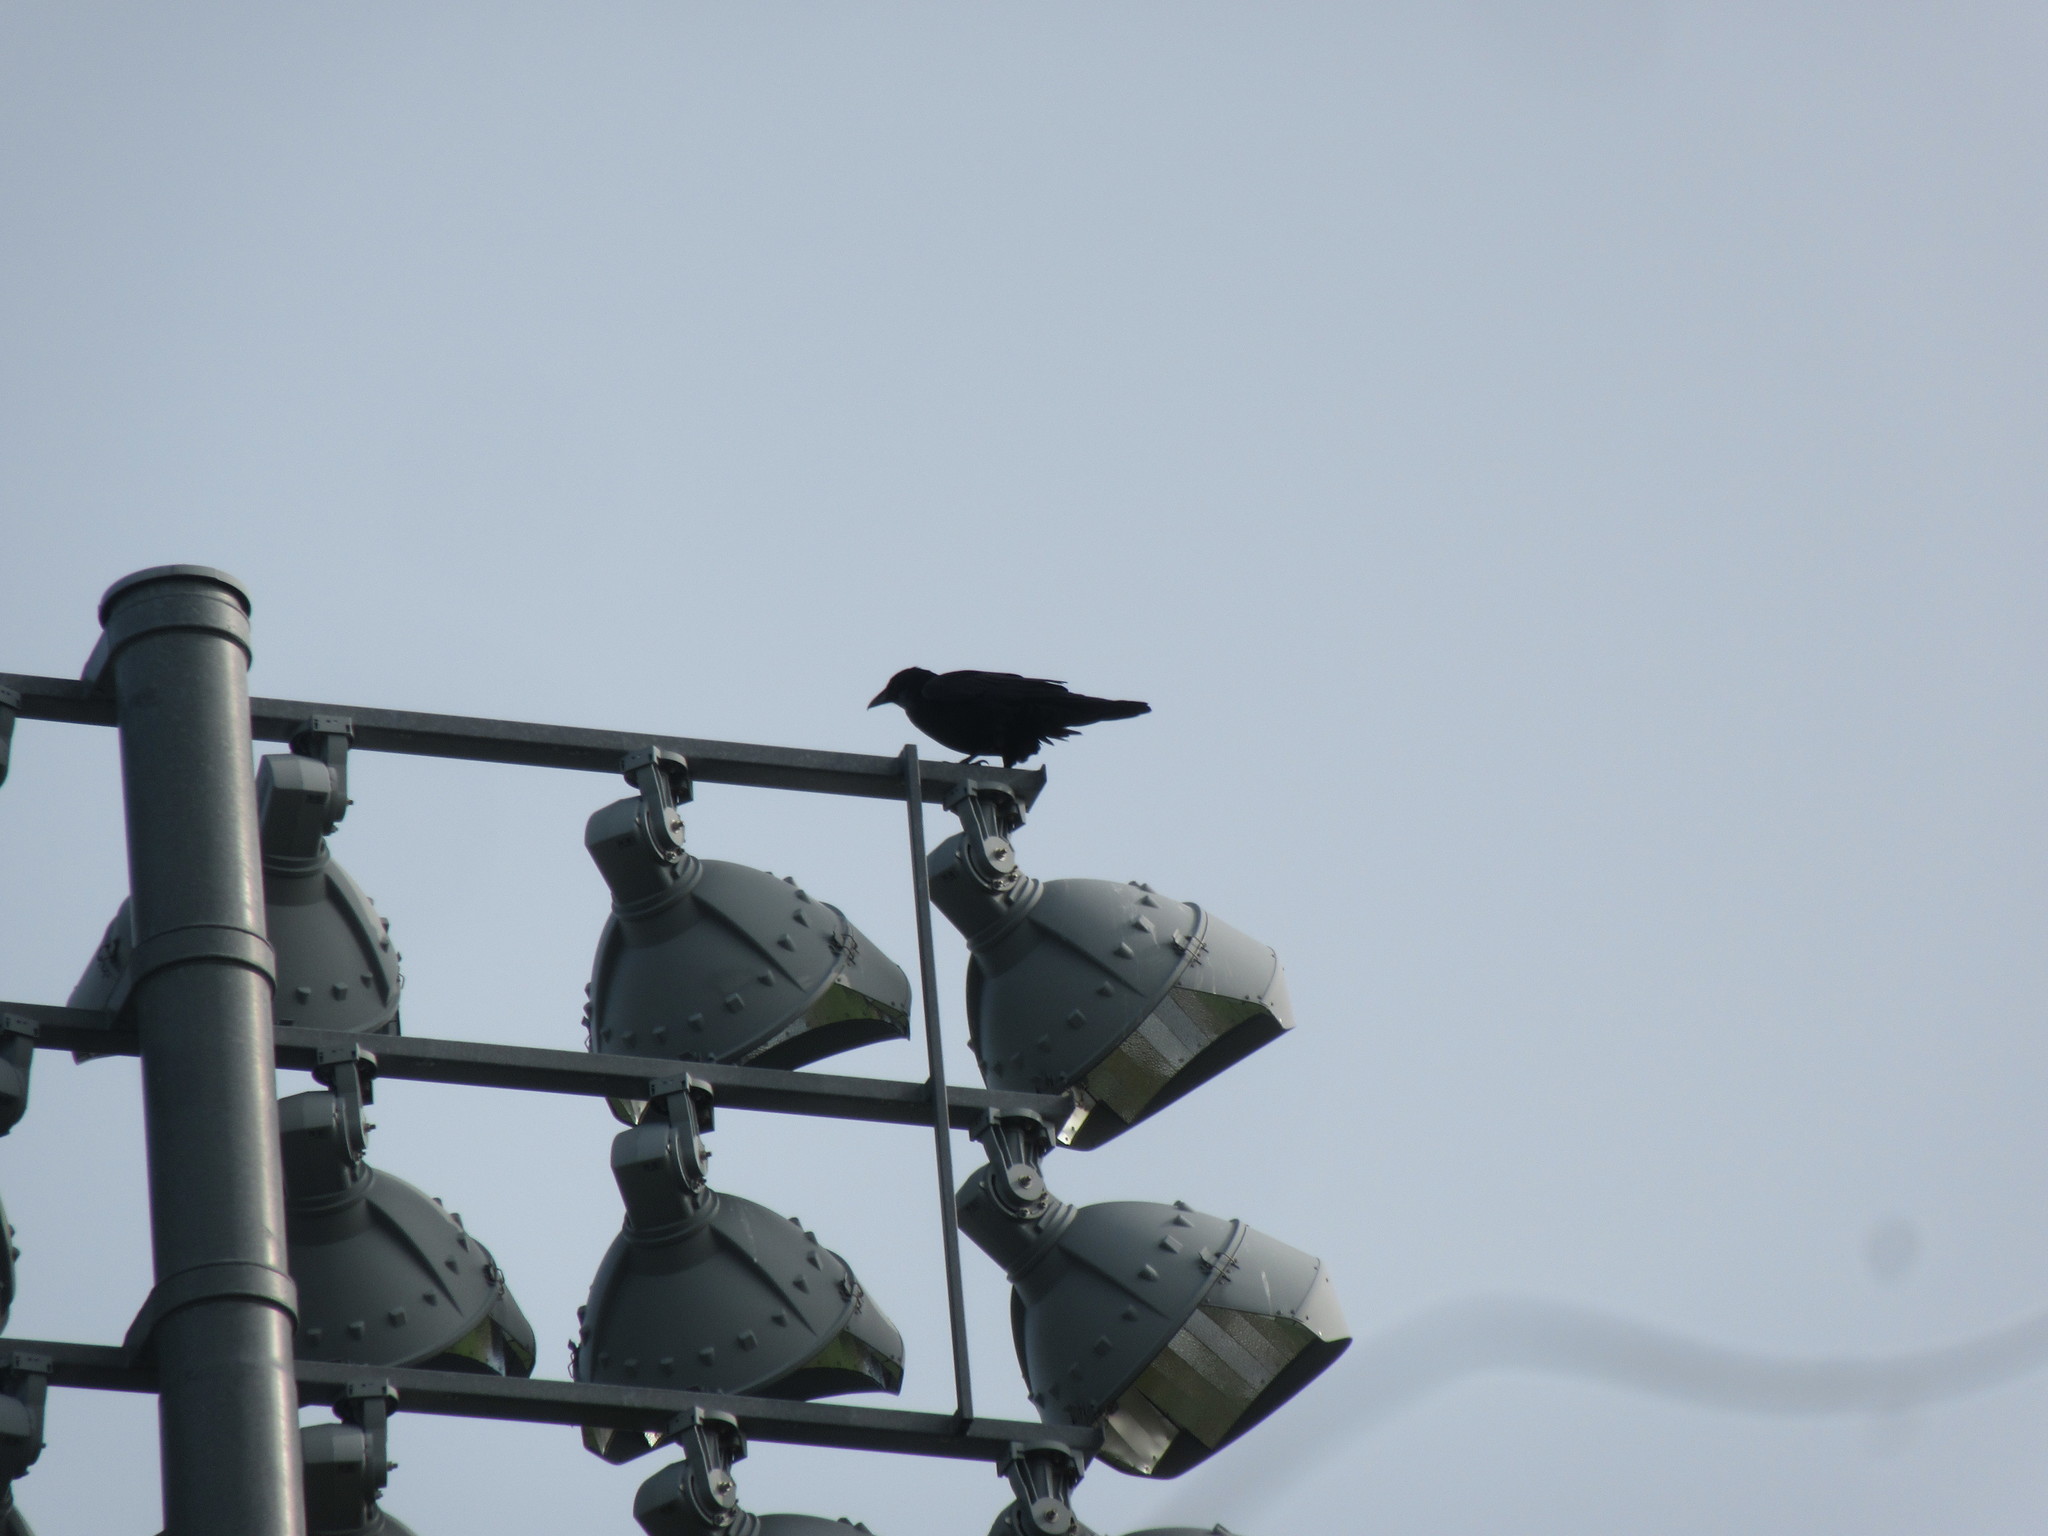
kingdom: Animalia
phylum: Chordata
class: Aves
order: Passeriformes
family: Corvidae
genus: Corvus
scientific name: Corvus brachyrhynchos
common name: American crow
